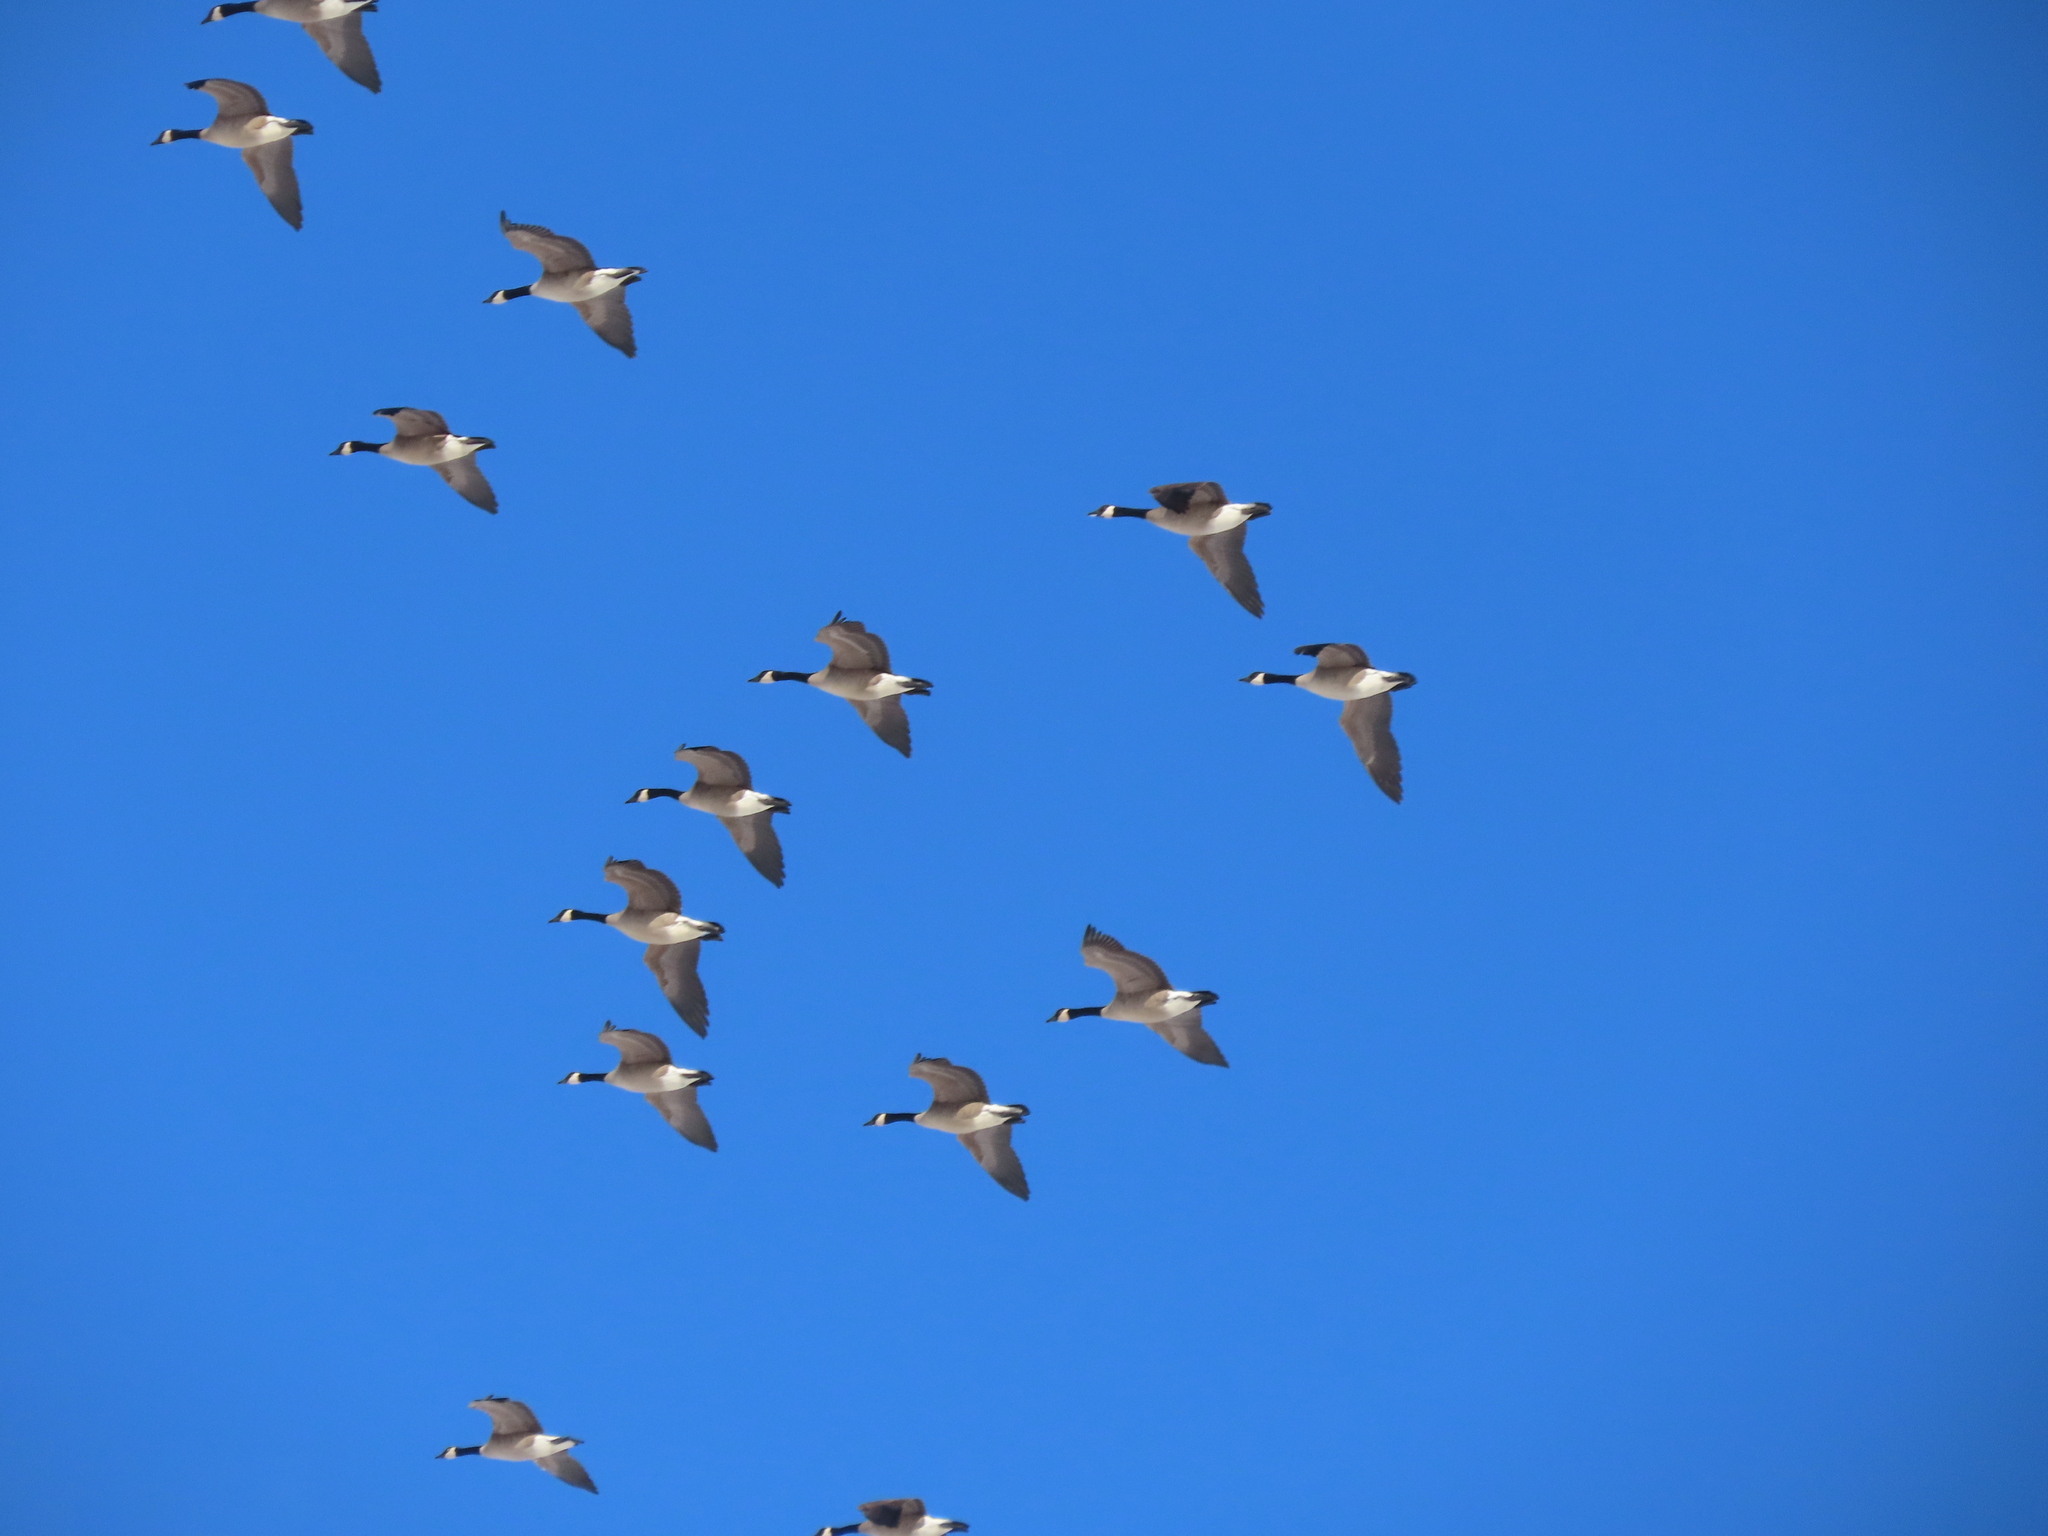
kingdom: Animalia
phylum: Chordata
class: Aves
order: Anseriformes
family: Anatidae
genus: Branta
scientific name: Branta canadensis
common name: Canada goose
